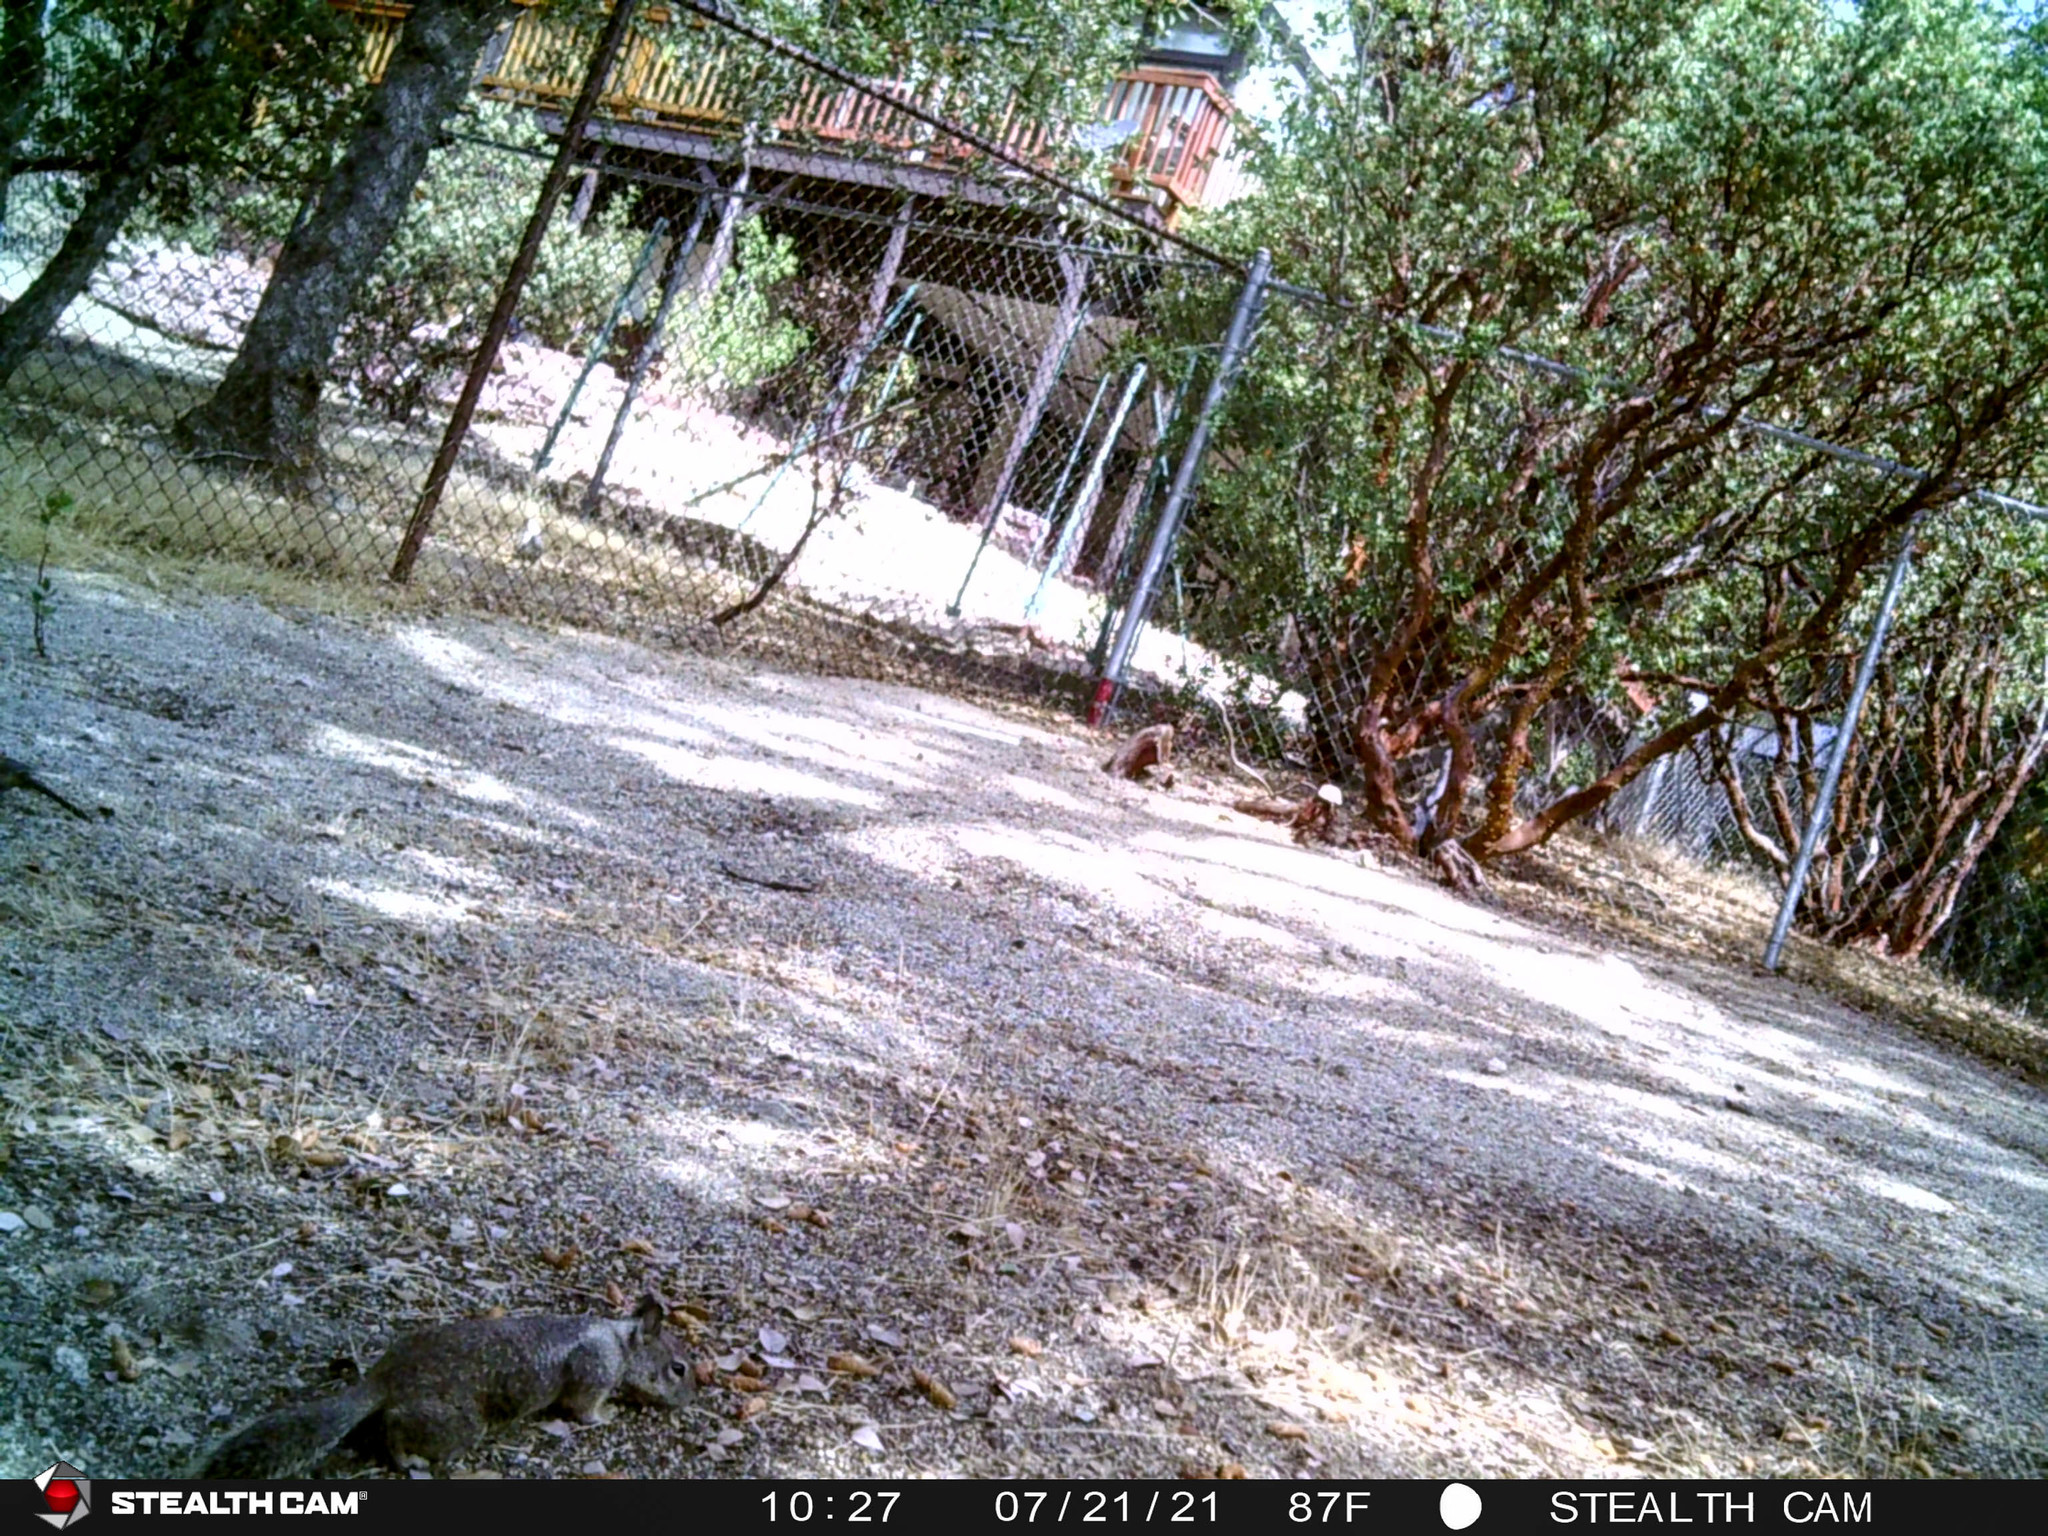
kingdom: Animalia
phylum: Chordata
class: Mammalia
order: Rodentia
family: Sciuridae
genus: Otospermophilus
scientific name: Otospermophilus beecheyi
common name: California ground squirrel
